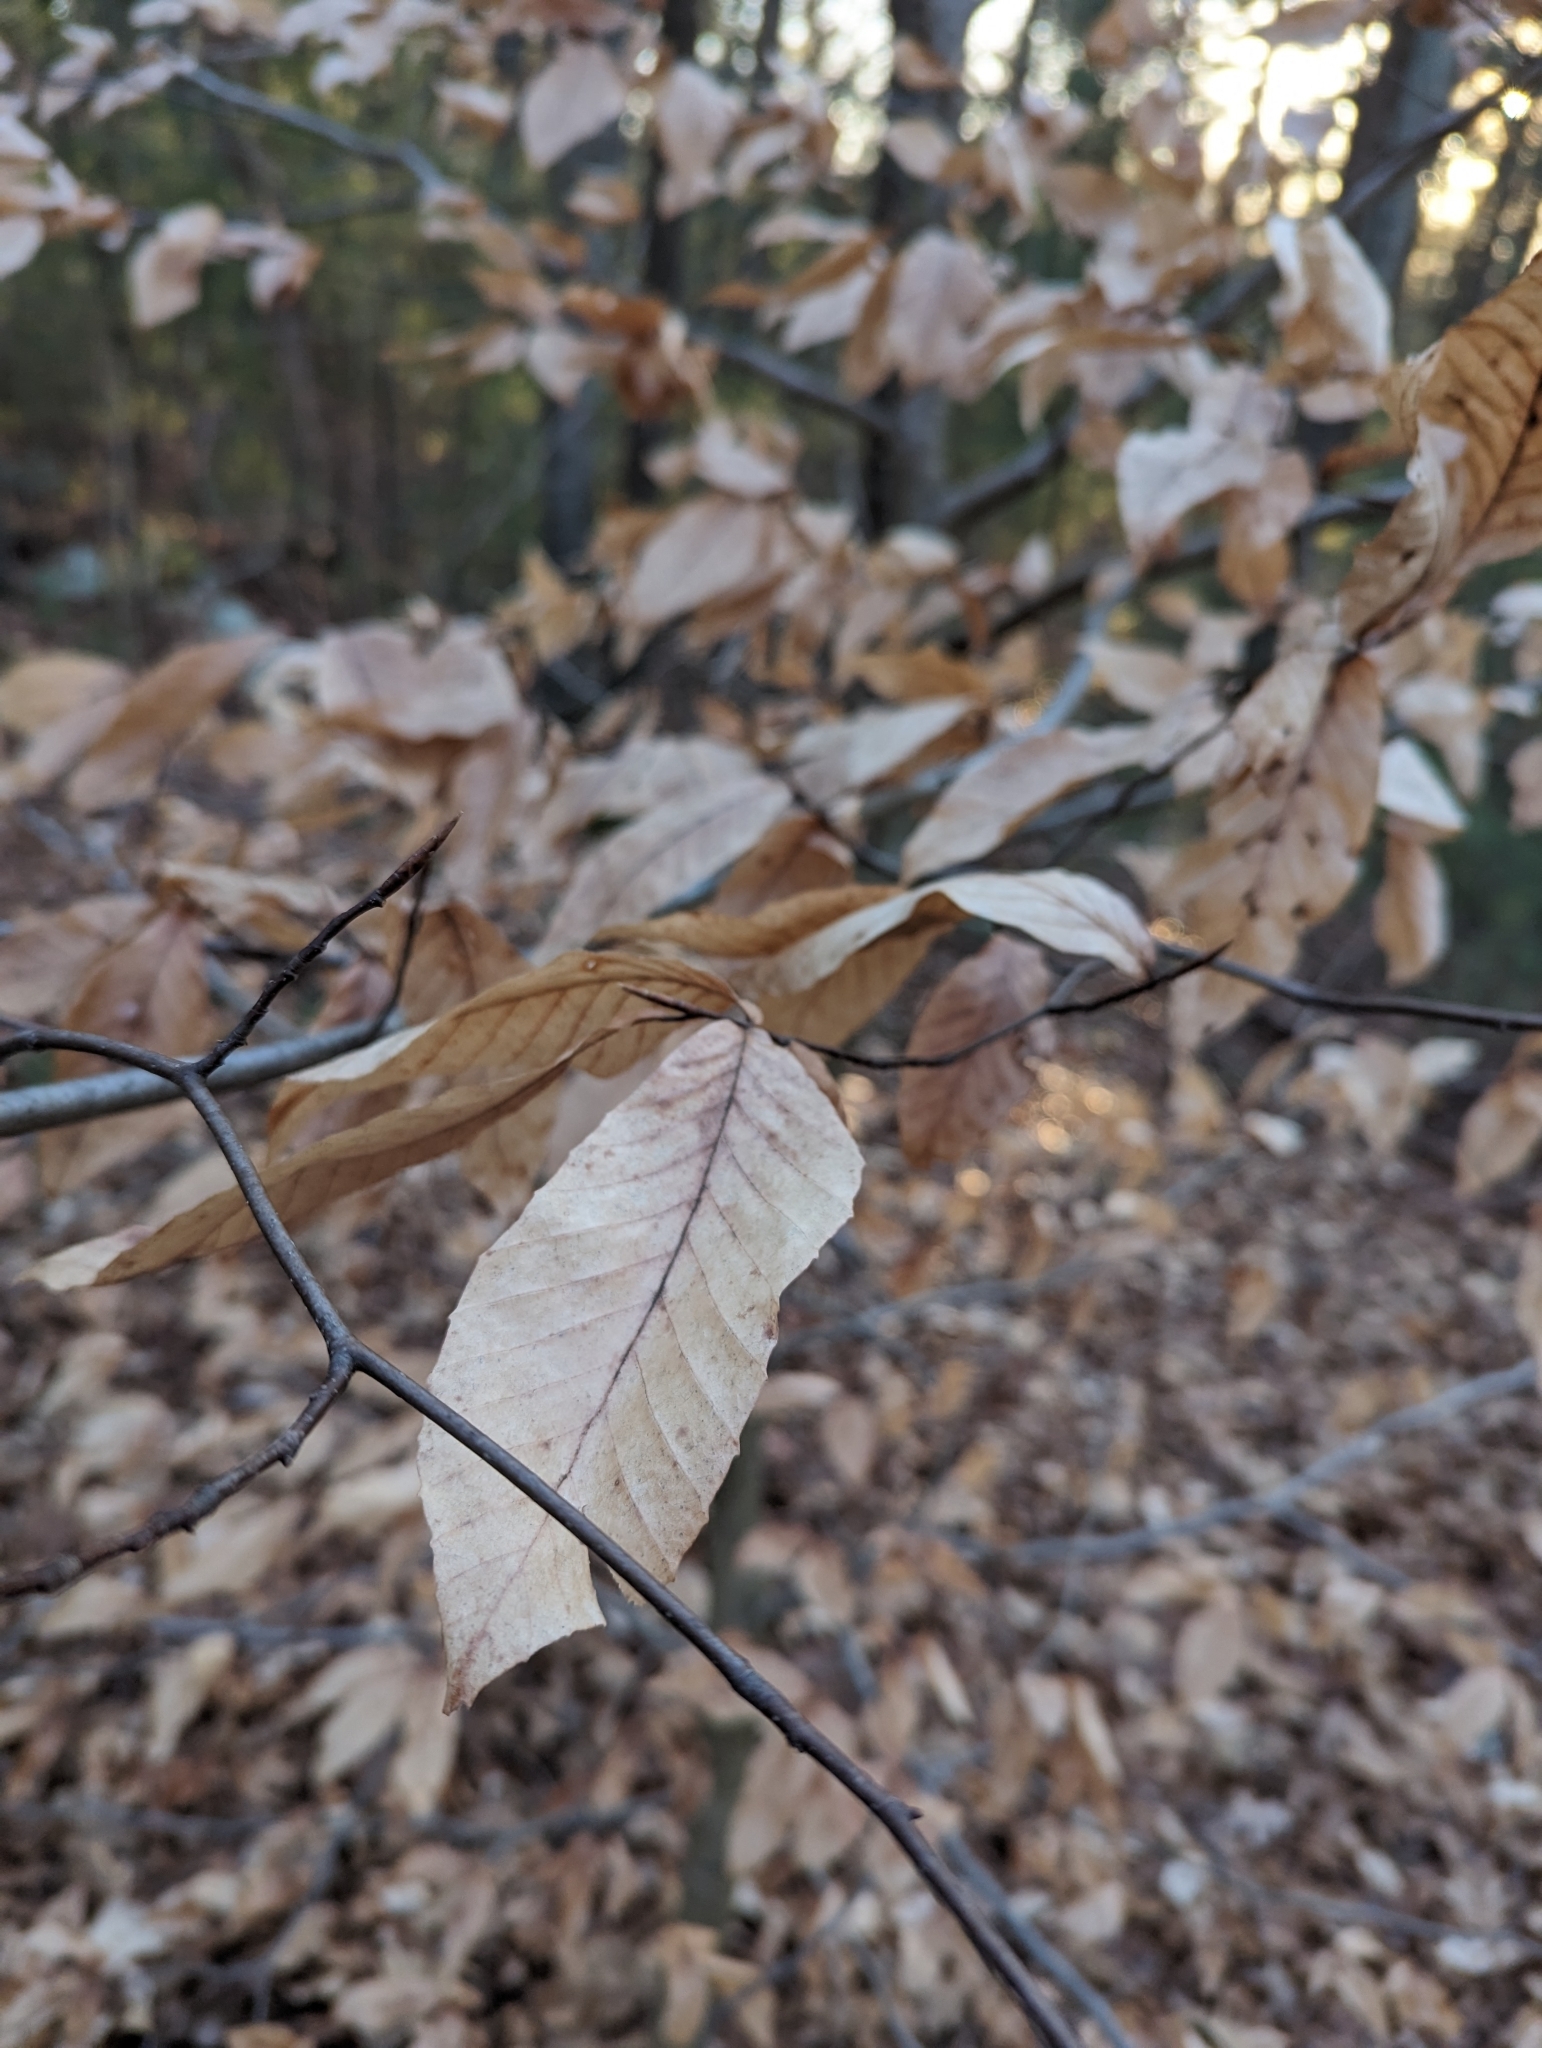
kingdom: Plantae
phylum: Tracheophyta
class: Magnoliopsida
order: Fagales
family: Fagaceae
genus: Fagus
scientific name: Fagus grandifolia
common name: American beech
